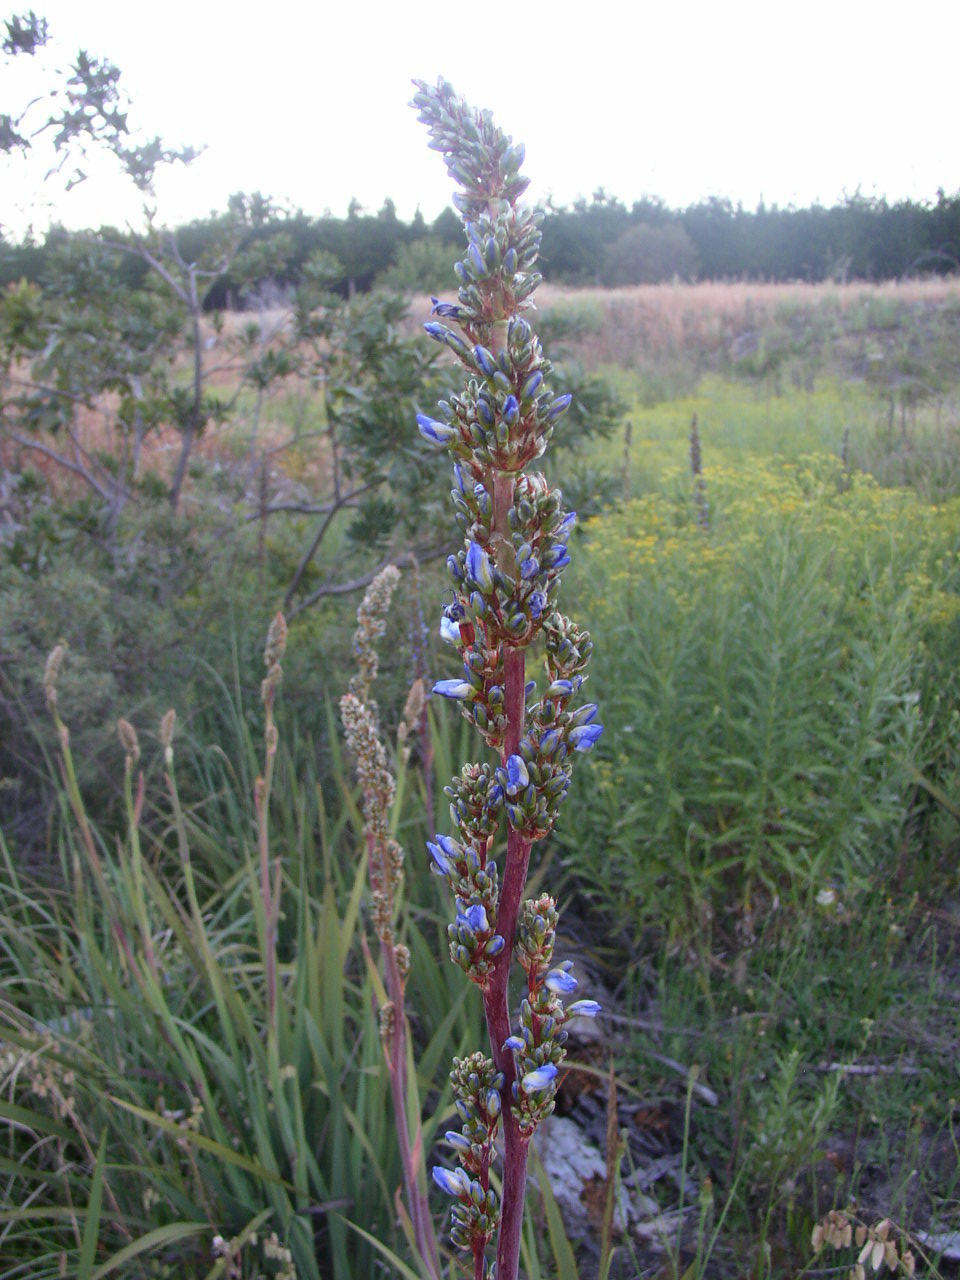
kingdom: Plantae
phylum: Tracheophyta
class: Liliopsida
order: Asparagales
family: Iridaceae
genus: Aristea
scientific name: Aristea capitata
